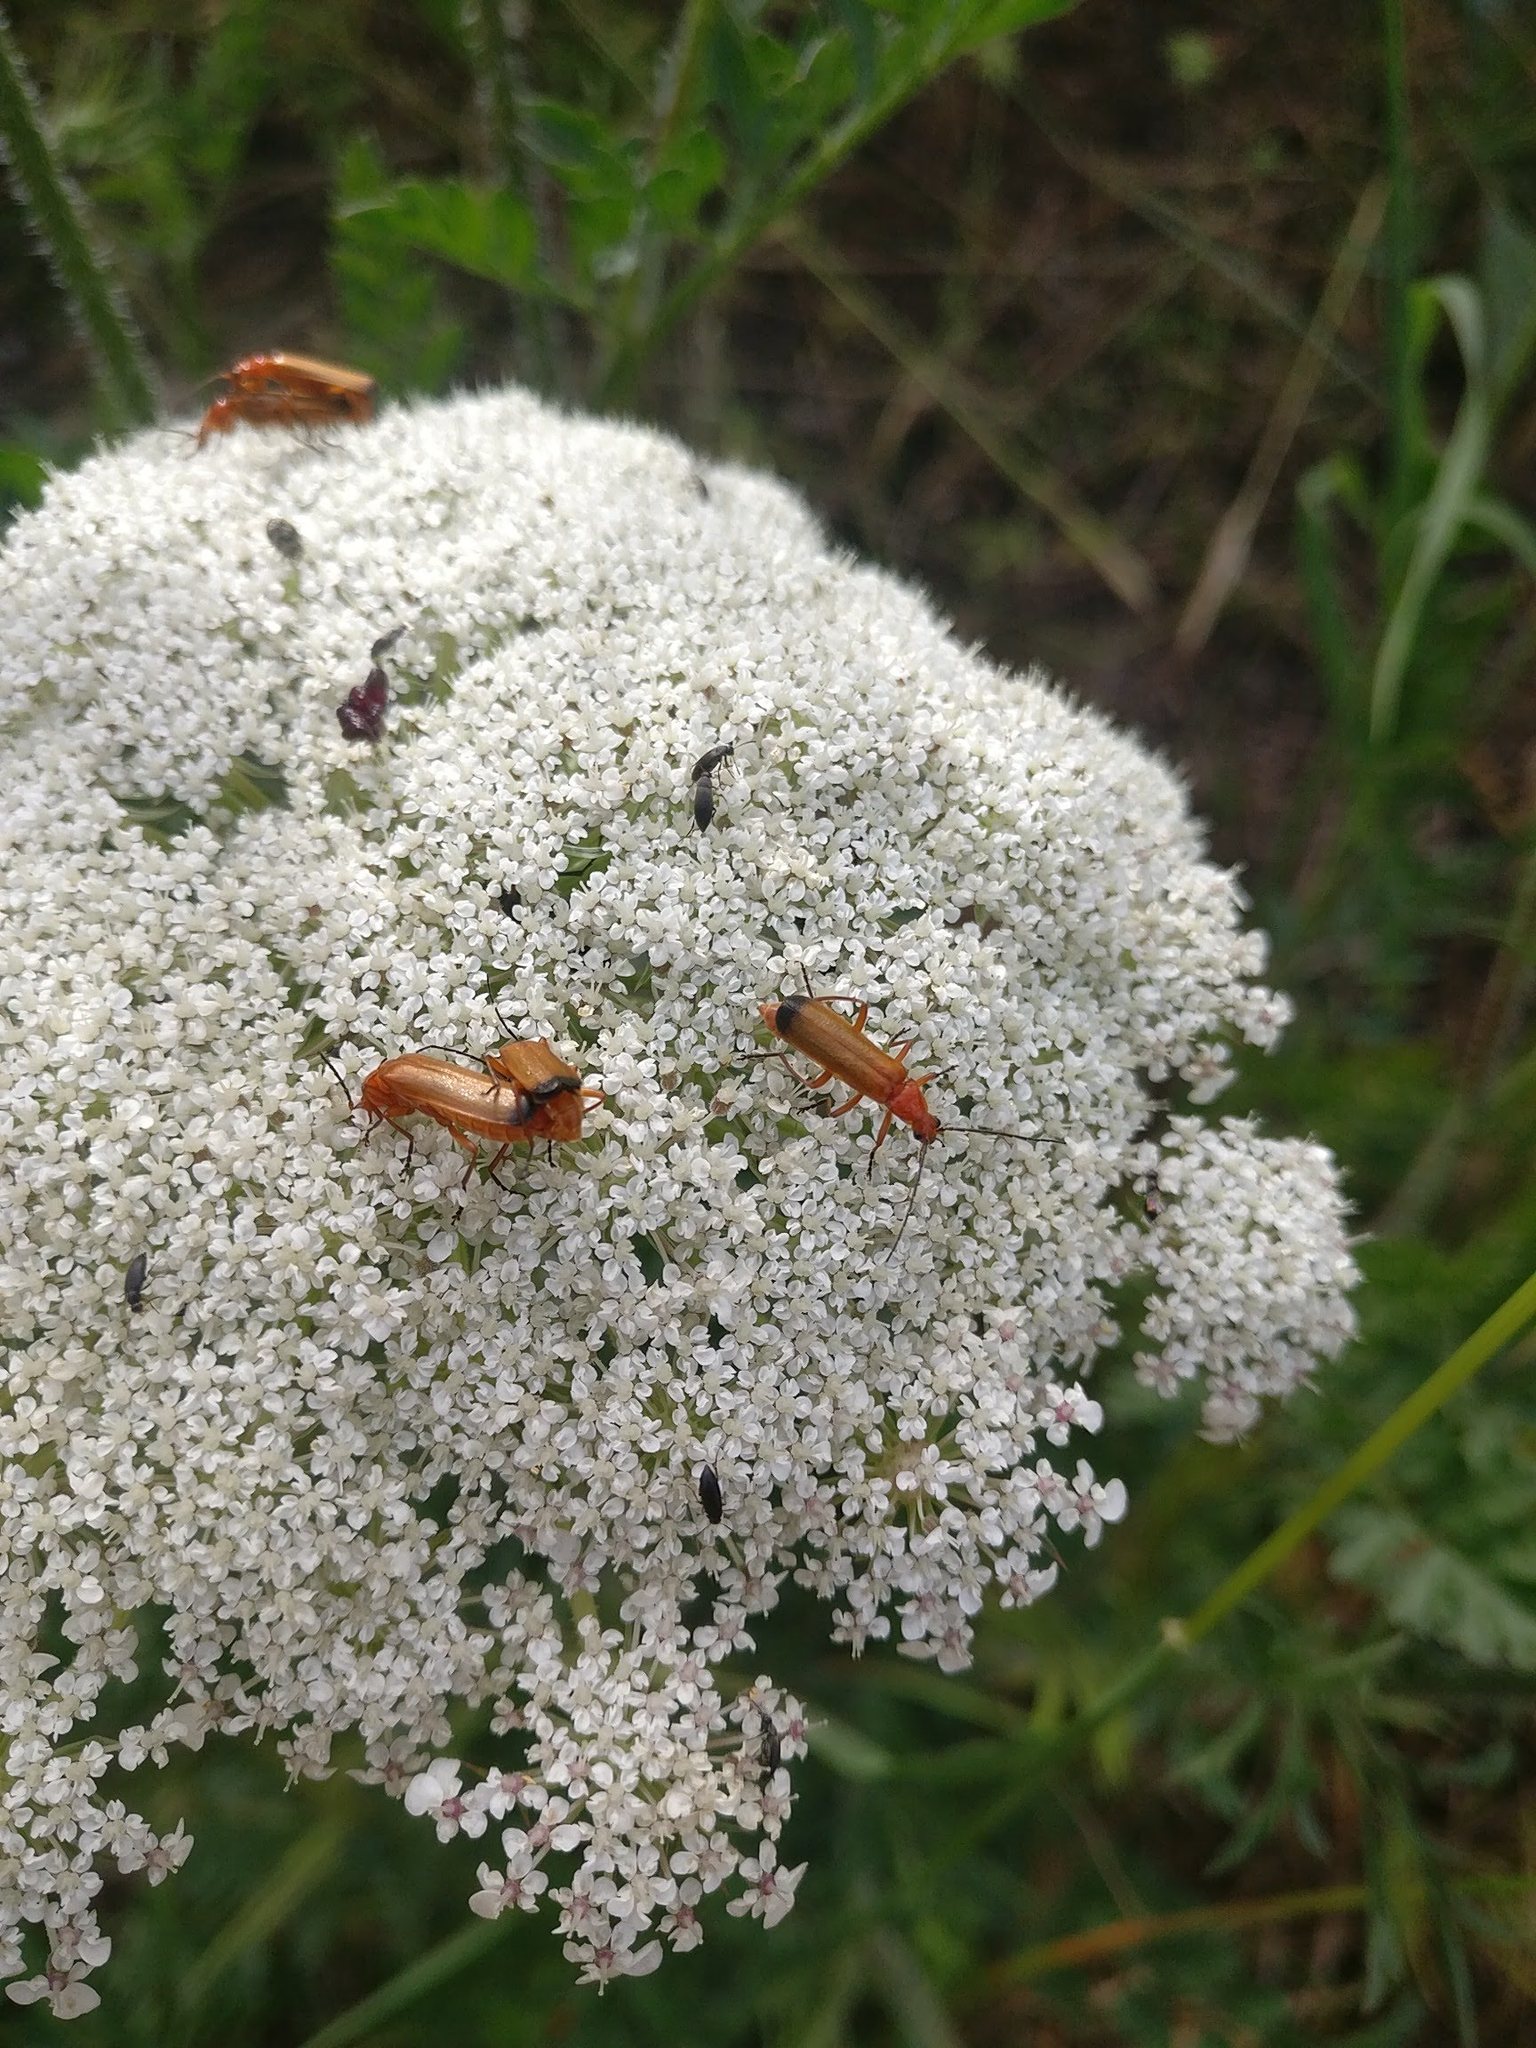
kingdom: Animalia
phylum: Arthropoda
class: Insecta
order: Coleoptera
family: Cantharidae
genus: Rhagonycha
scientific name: Rhagonycha fulva
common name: Common red soldier beetle
